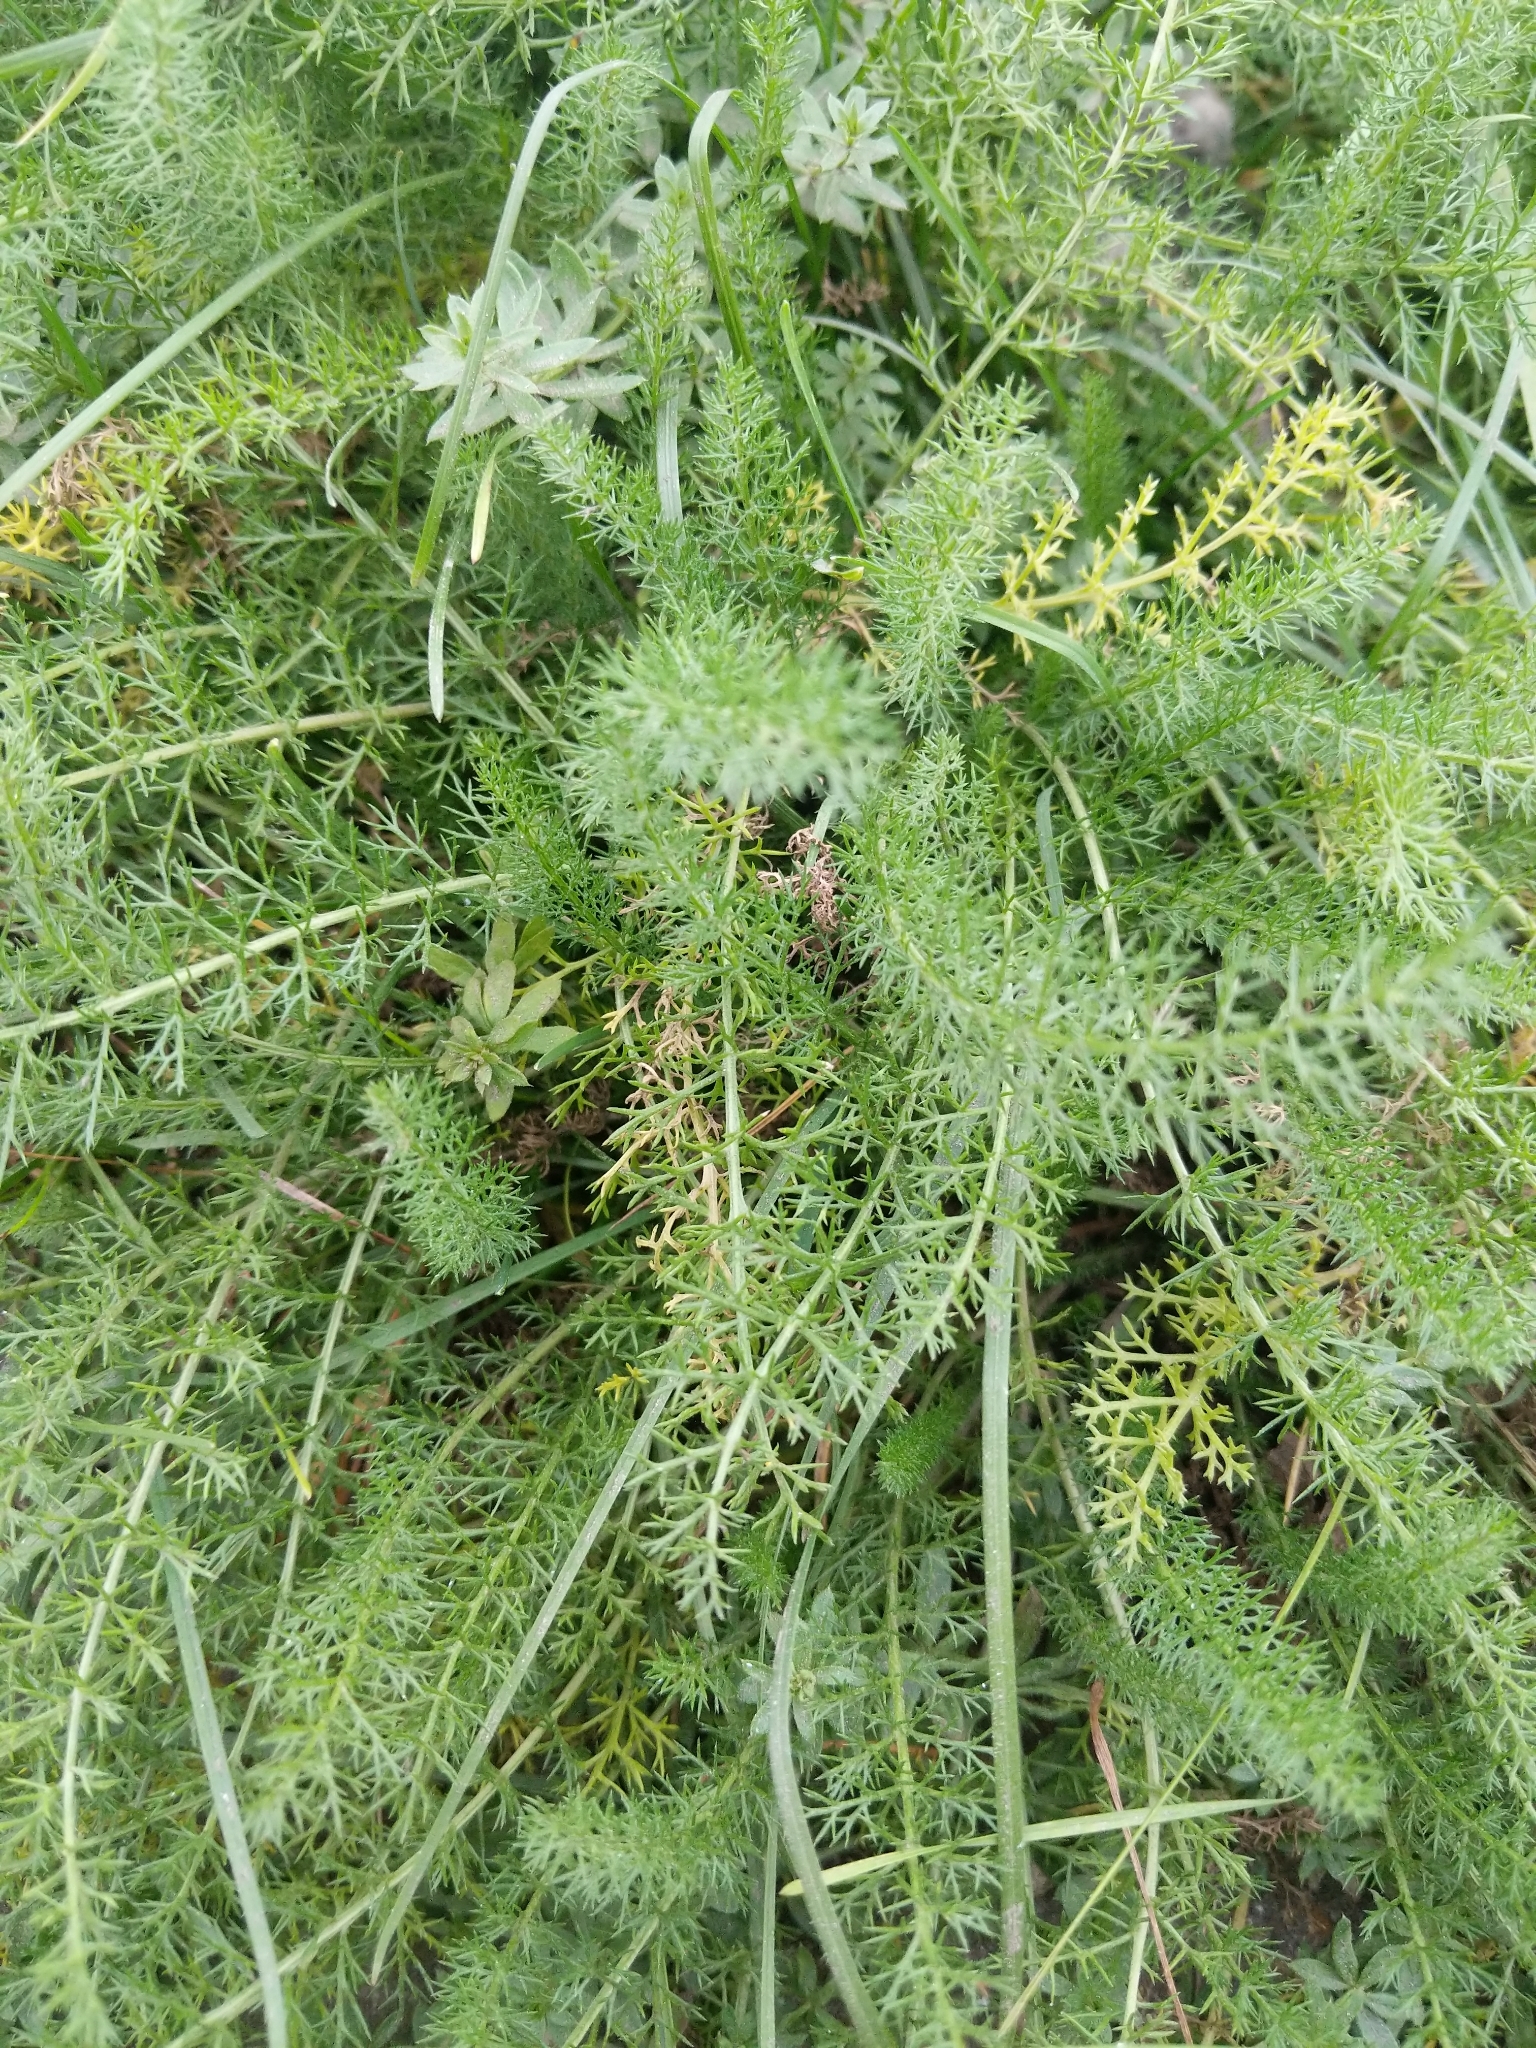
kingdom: Plantae
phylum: Tracheophyta
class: Magnoliopsida
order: Asterales
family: Asteraceae
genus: Achillea
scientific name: Achillea millefolium
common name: Yarrow
